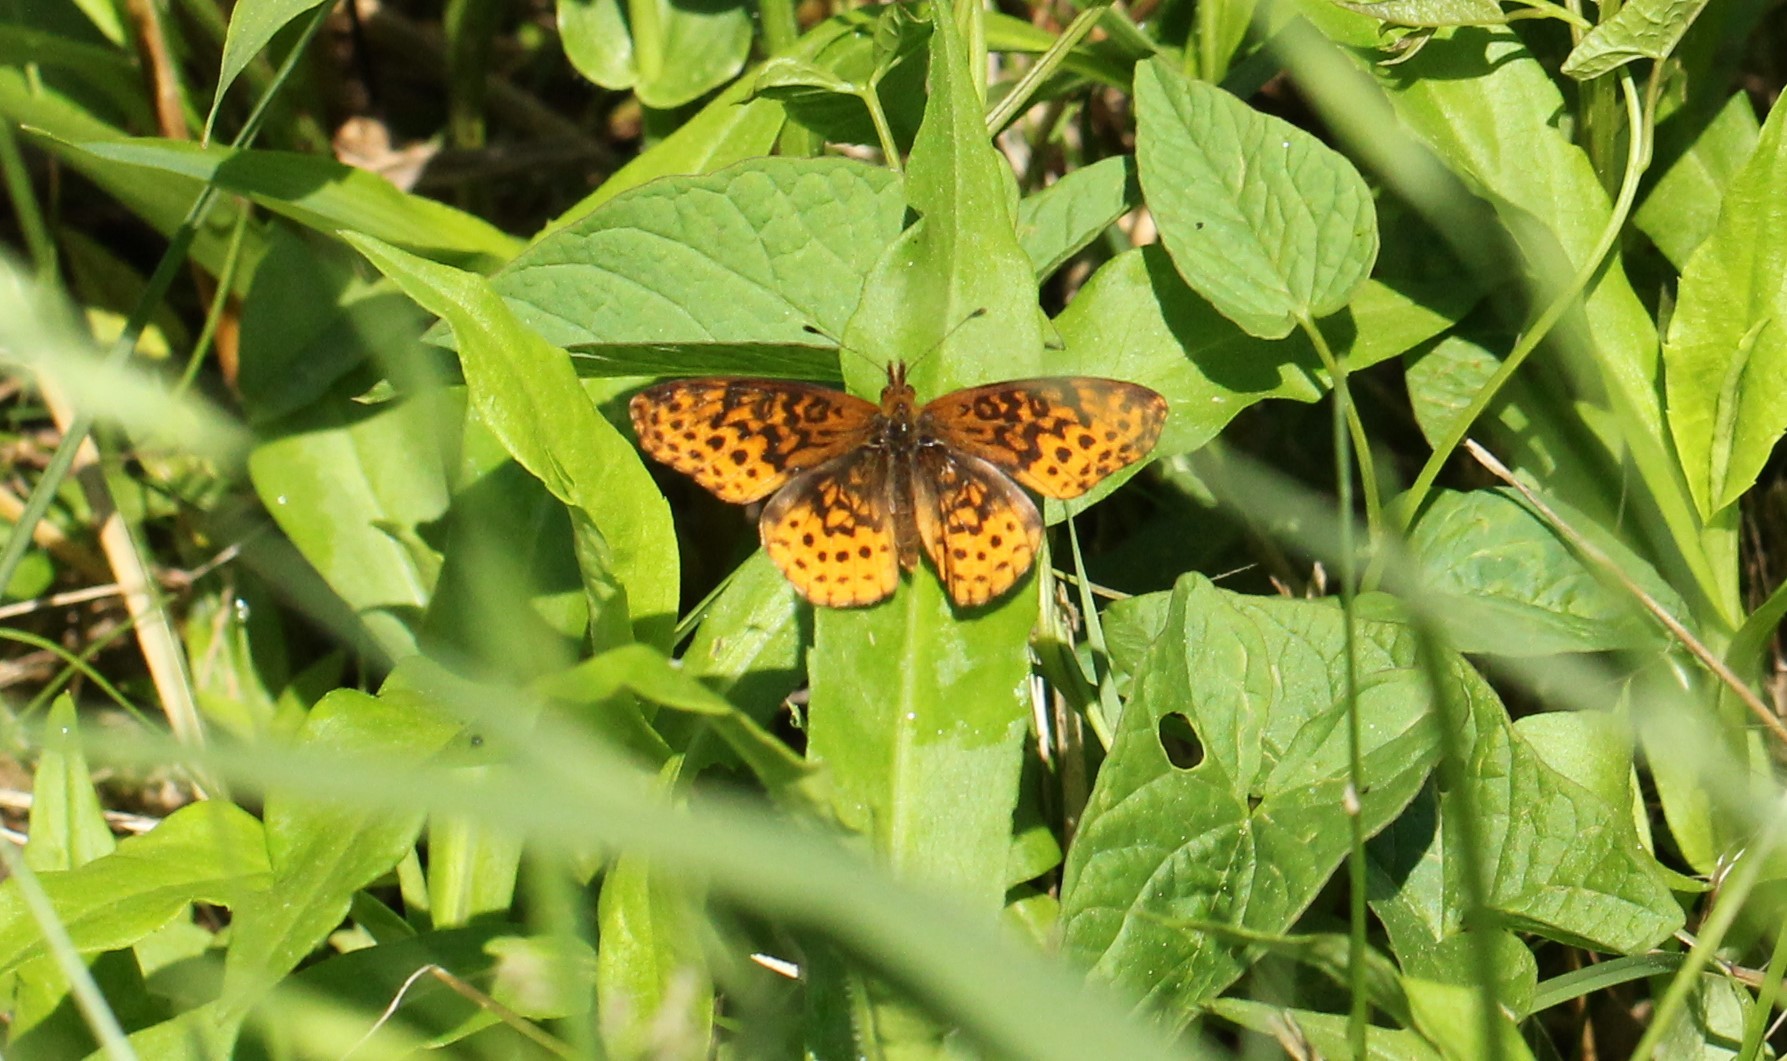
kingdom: Animalia
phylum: Arthropoda
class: Insecta
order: Lepidoptera
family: Nymphalidae
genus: Clossiana
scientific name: Clossiana toddi
